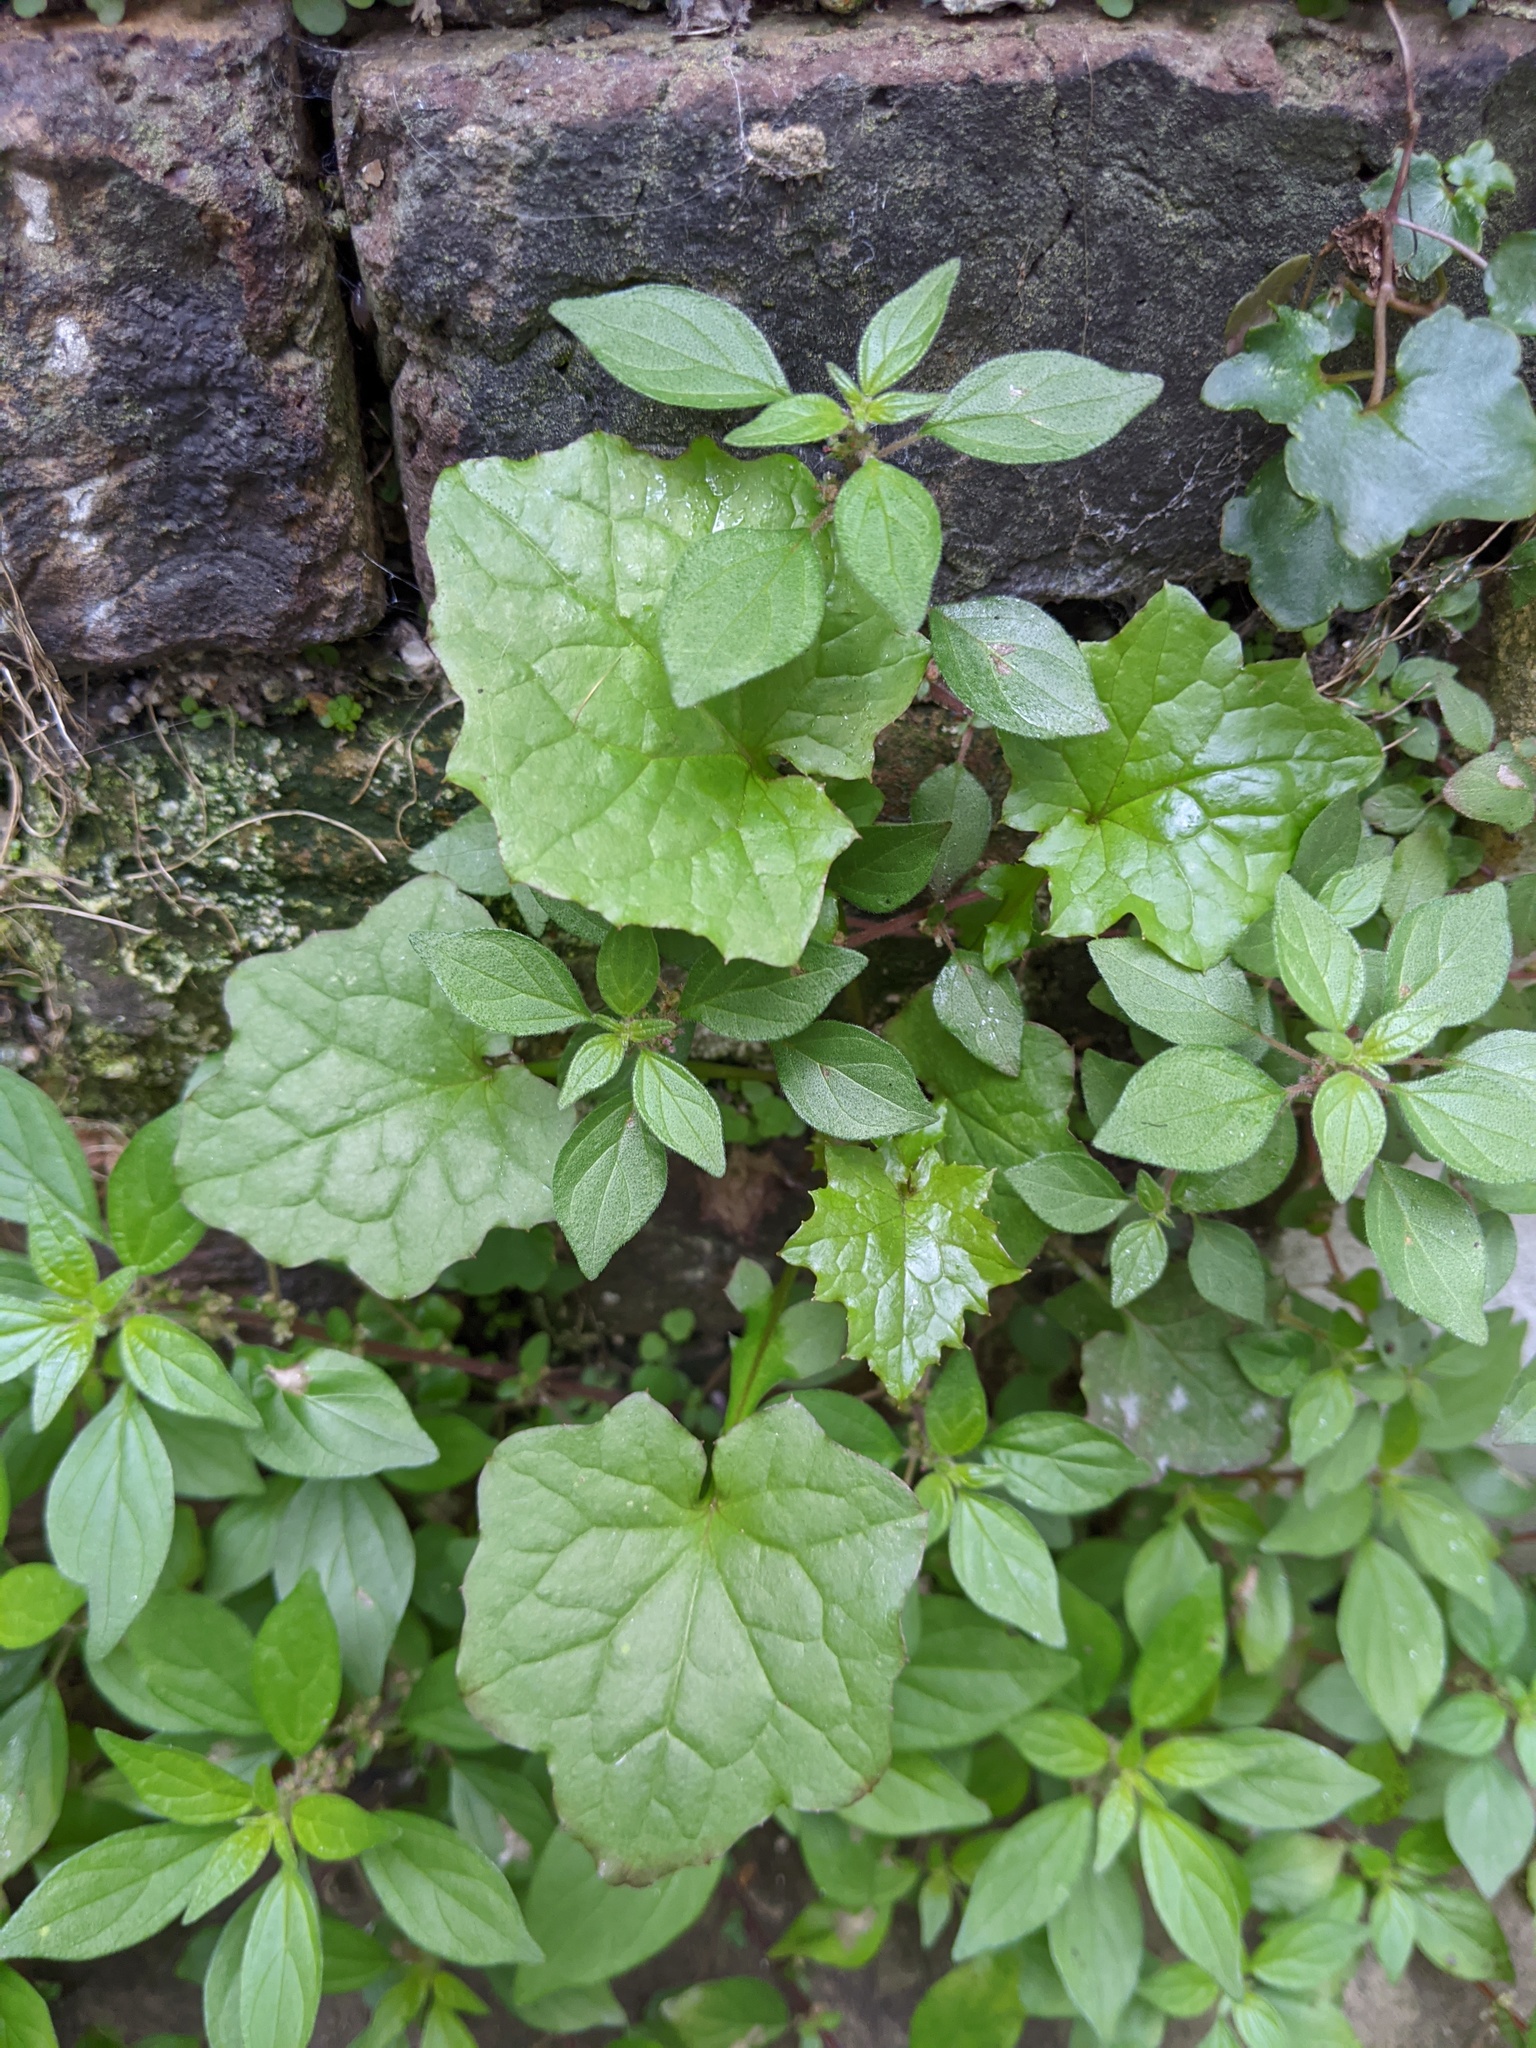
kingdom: Plantae
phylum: Tracheophyta
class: Magnoliopsida
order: Asterales
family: Asteraceae
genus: Mycelis
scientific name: Mycelis muralis
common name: Wall lettuce
